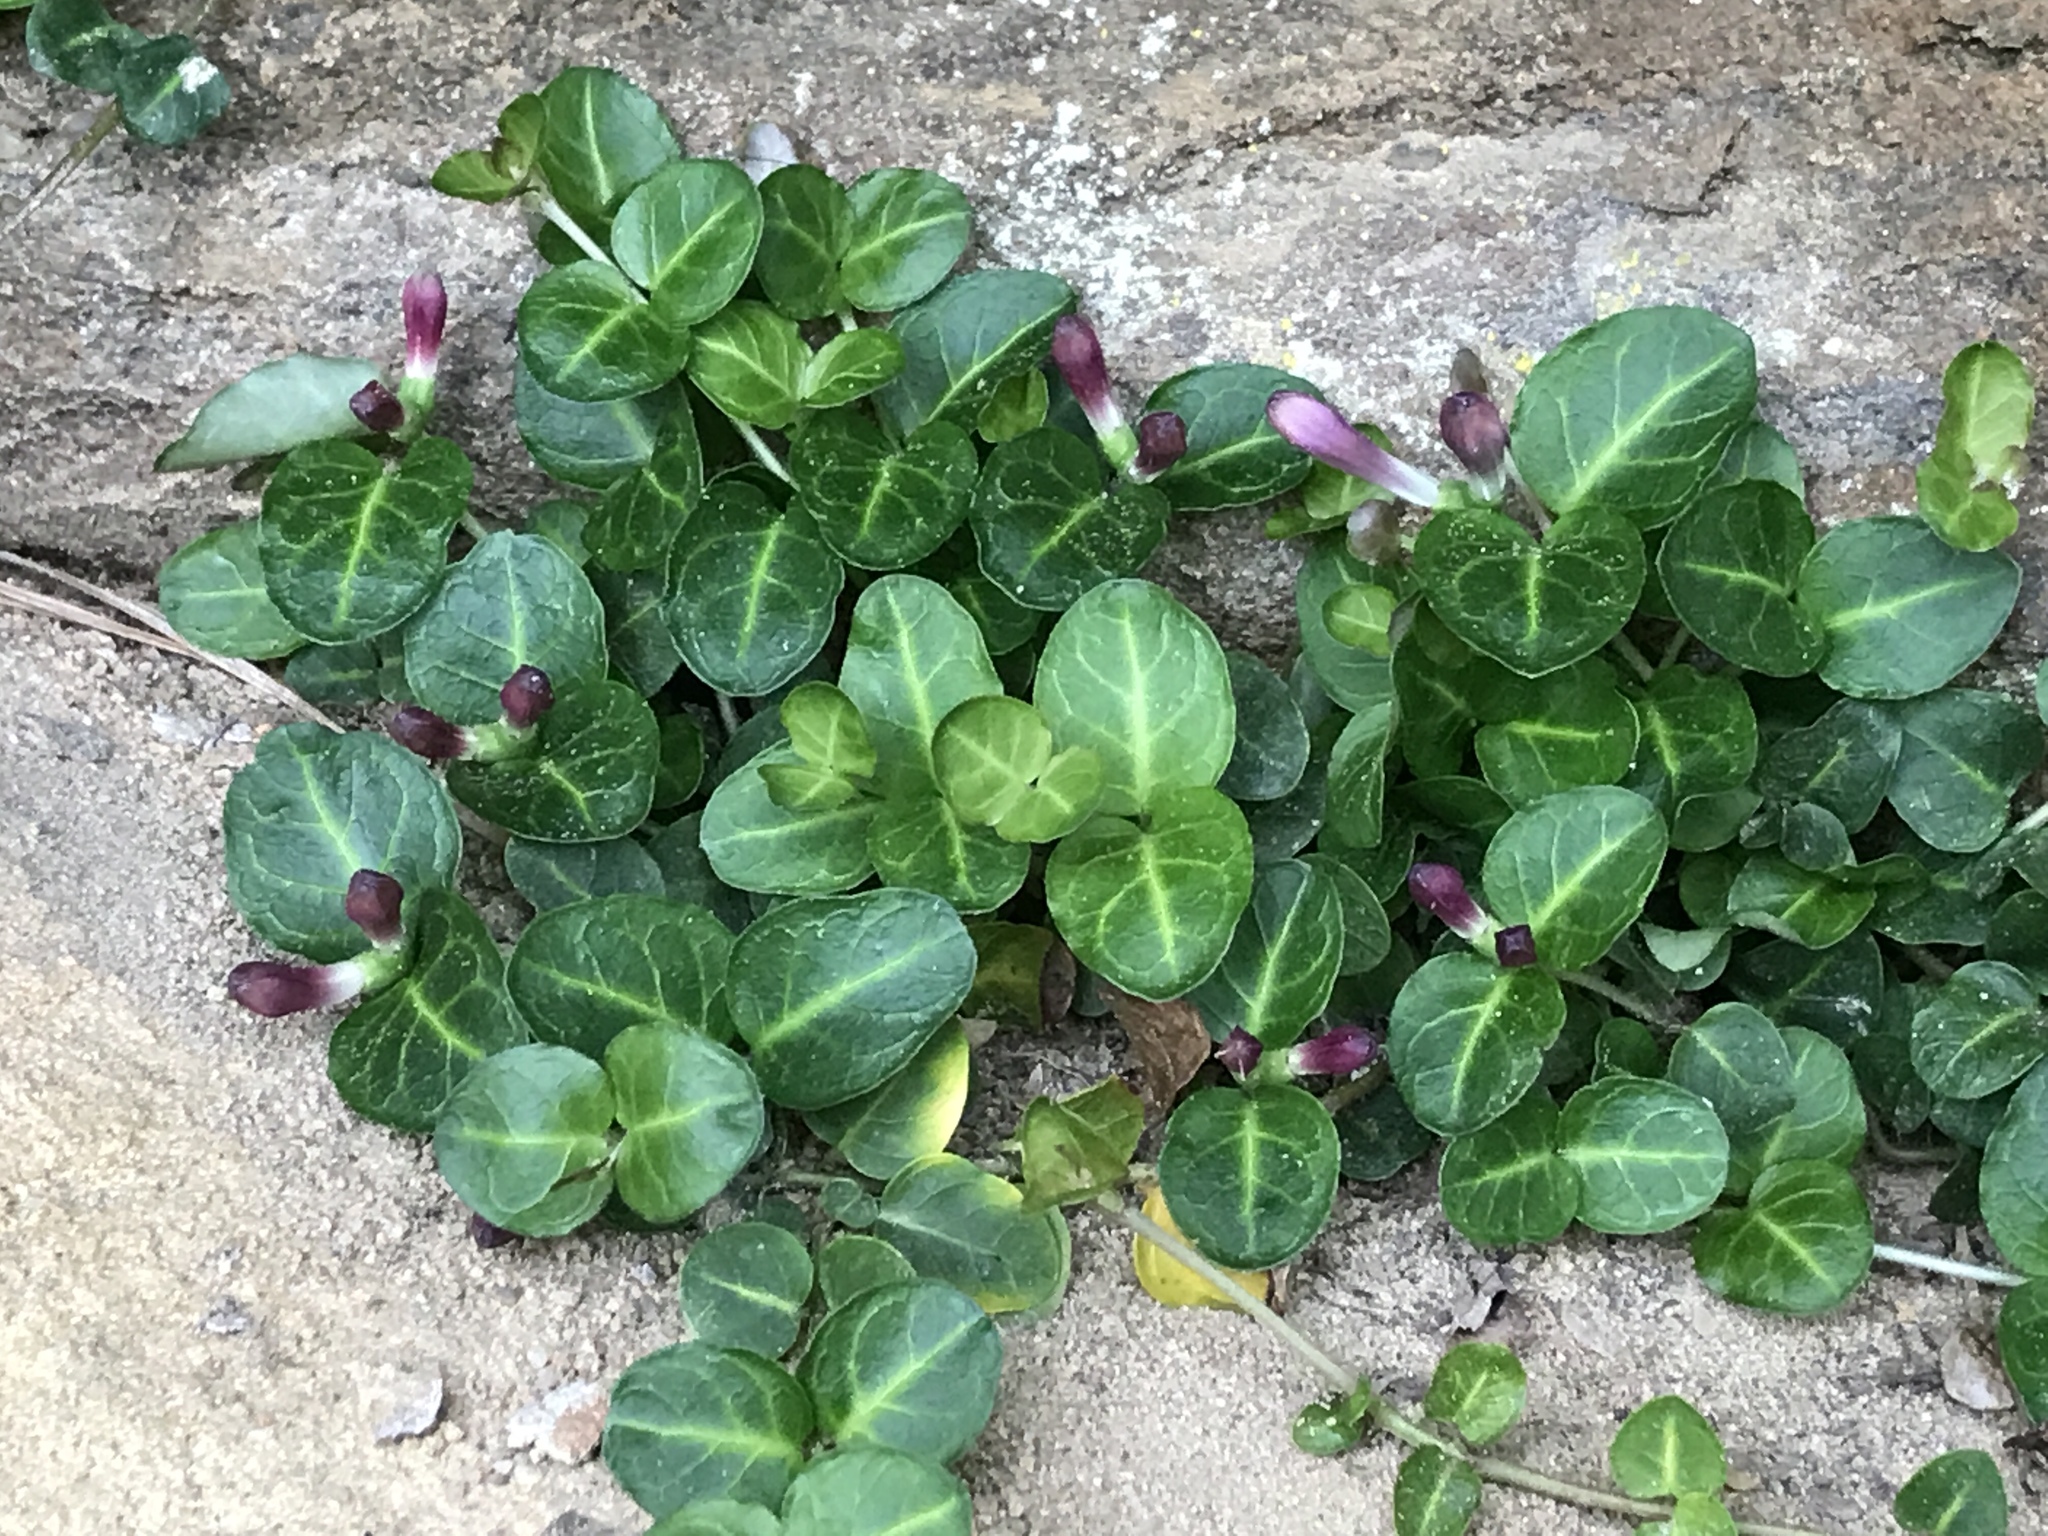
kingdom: Plantae
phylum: Tracheophyta
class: Magnoliopsida
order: Gentianales
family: Rubiaceae
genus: Mitchella
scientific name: Mitchella repens
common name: Partridge-berry
